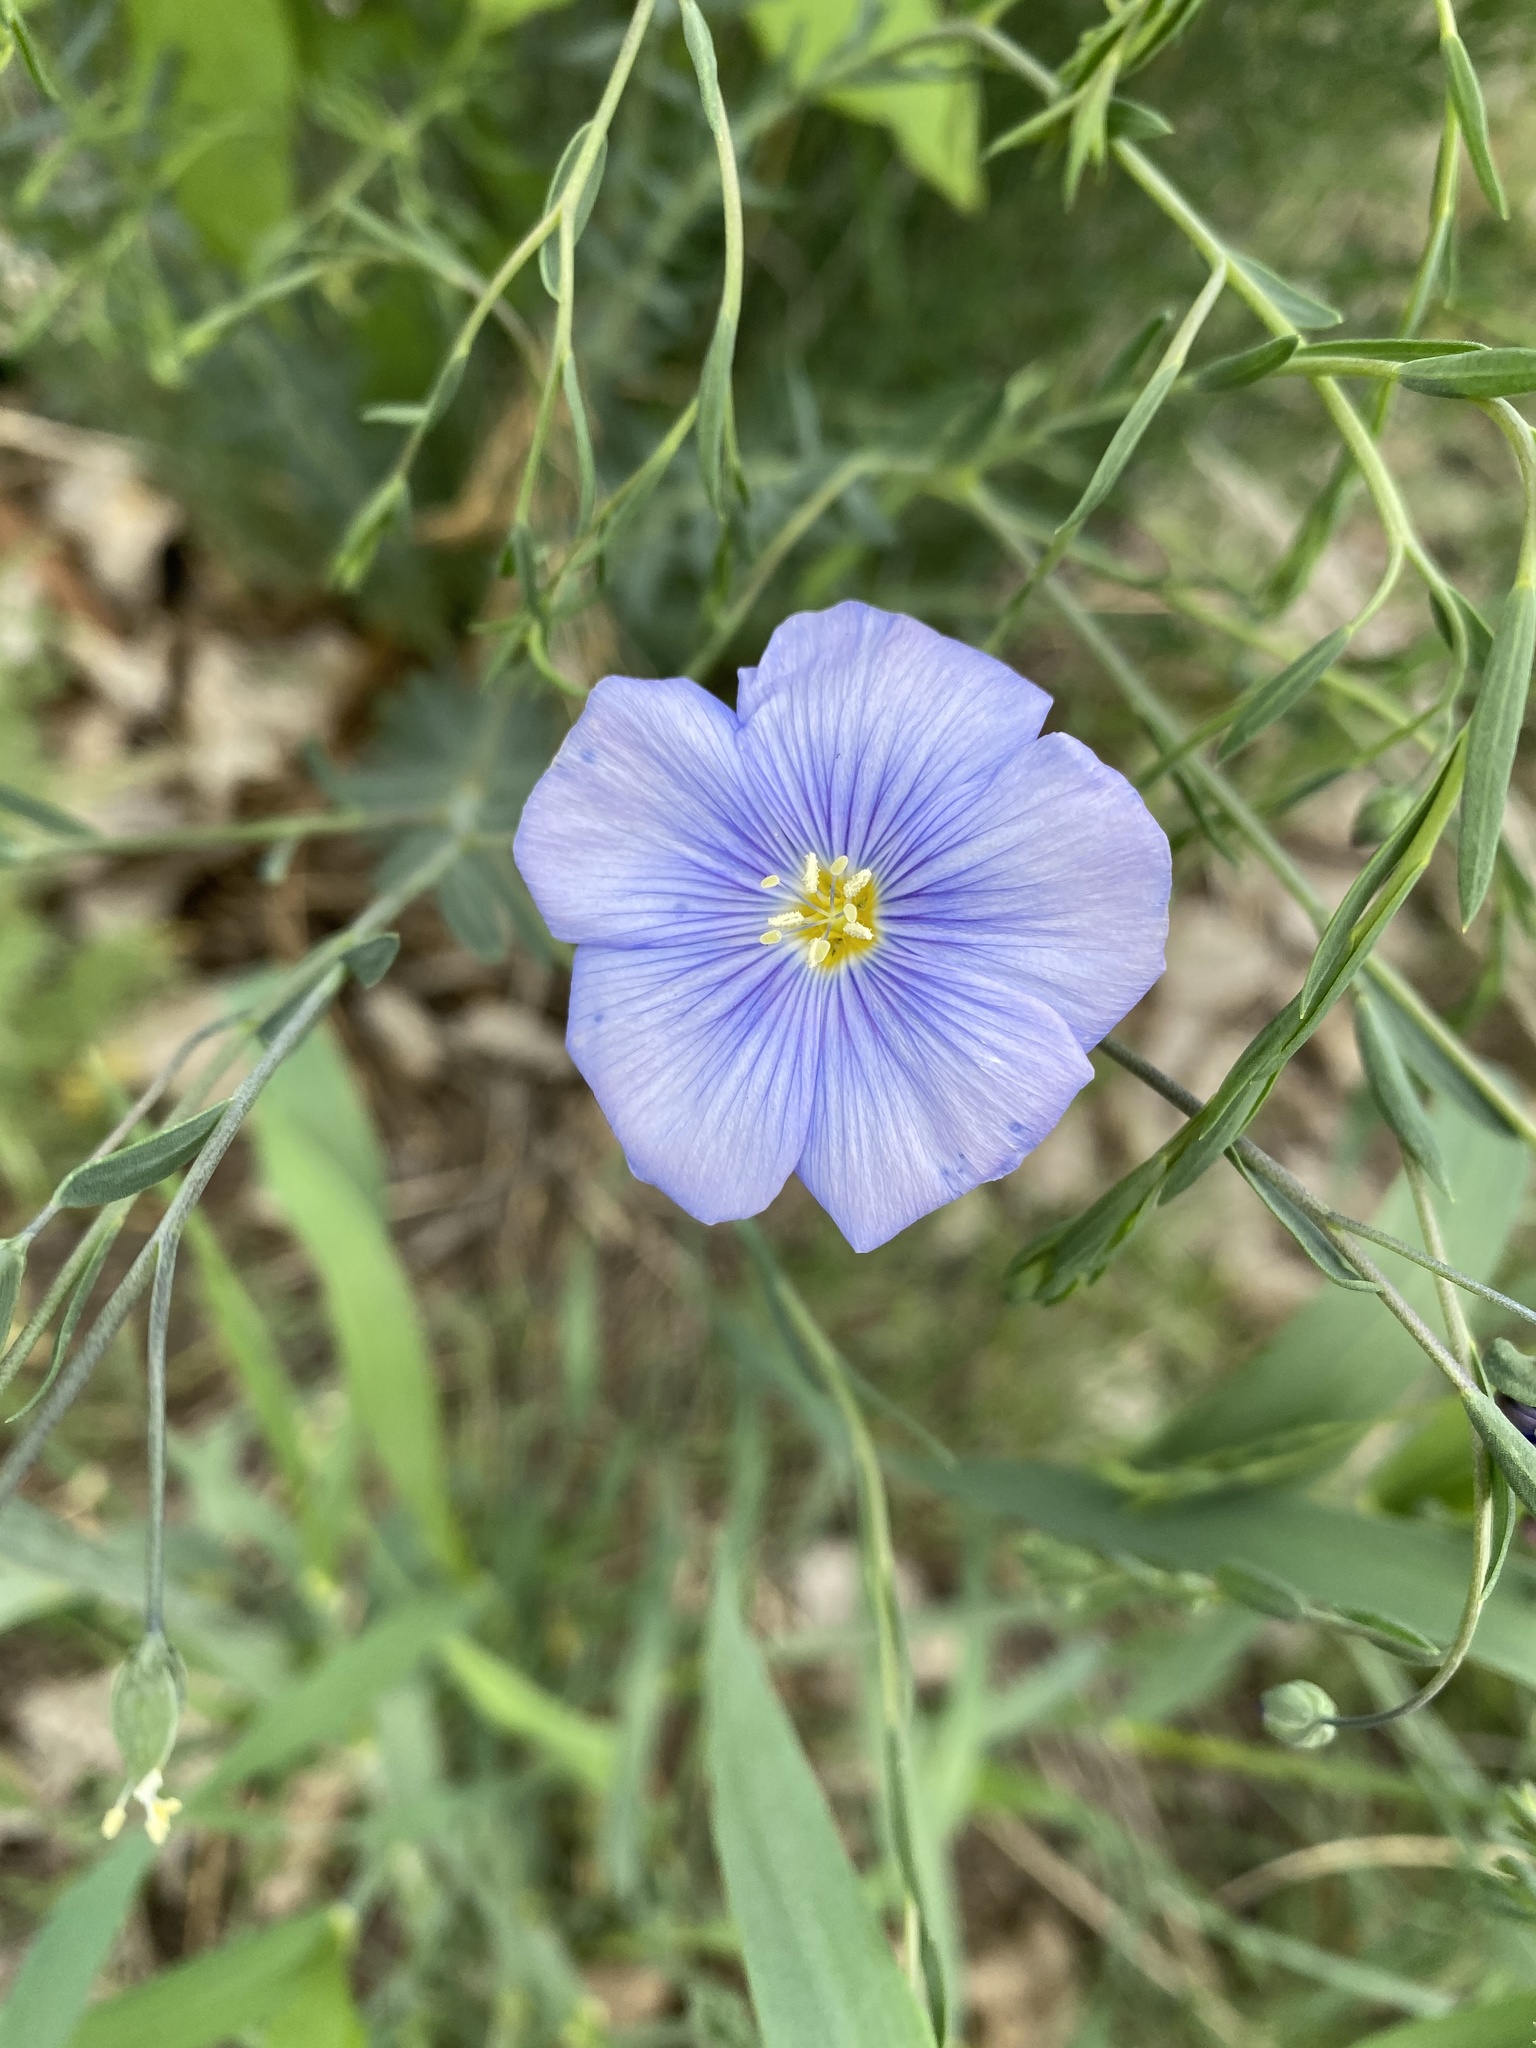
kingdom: Plantae
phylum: Tracheophyta
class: Magnoliopsida
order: Malpighiales
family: Linaceae
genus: Linum
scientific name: Linum lewisii
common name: Prairie flax
